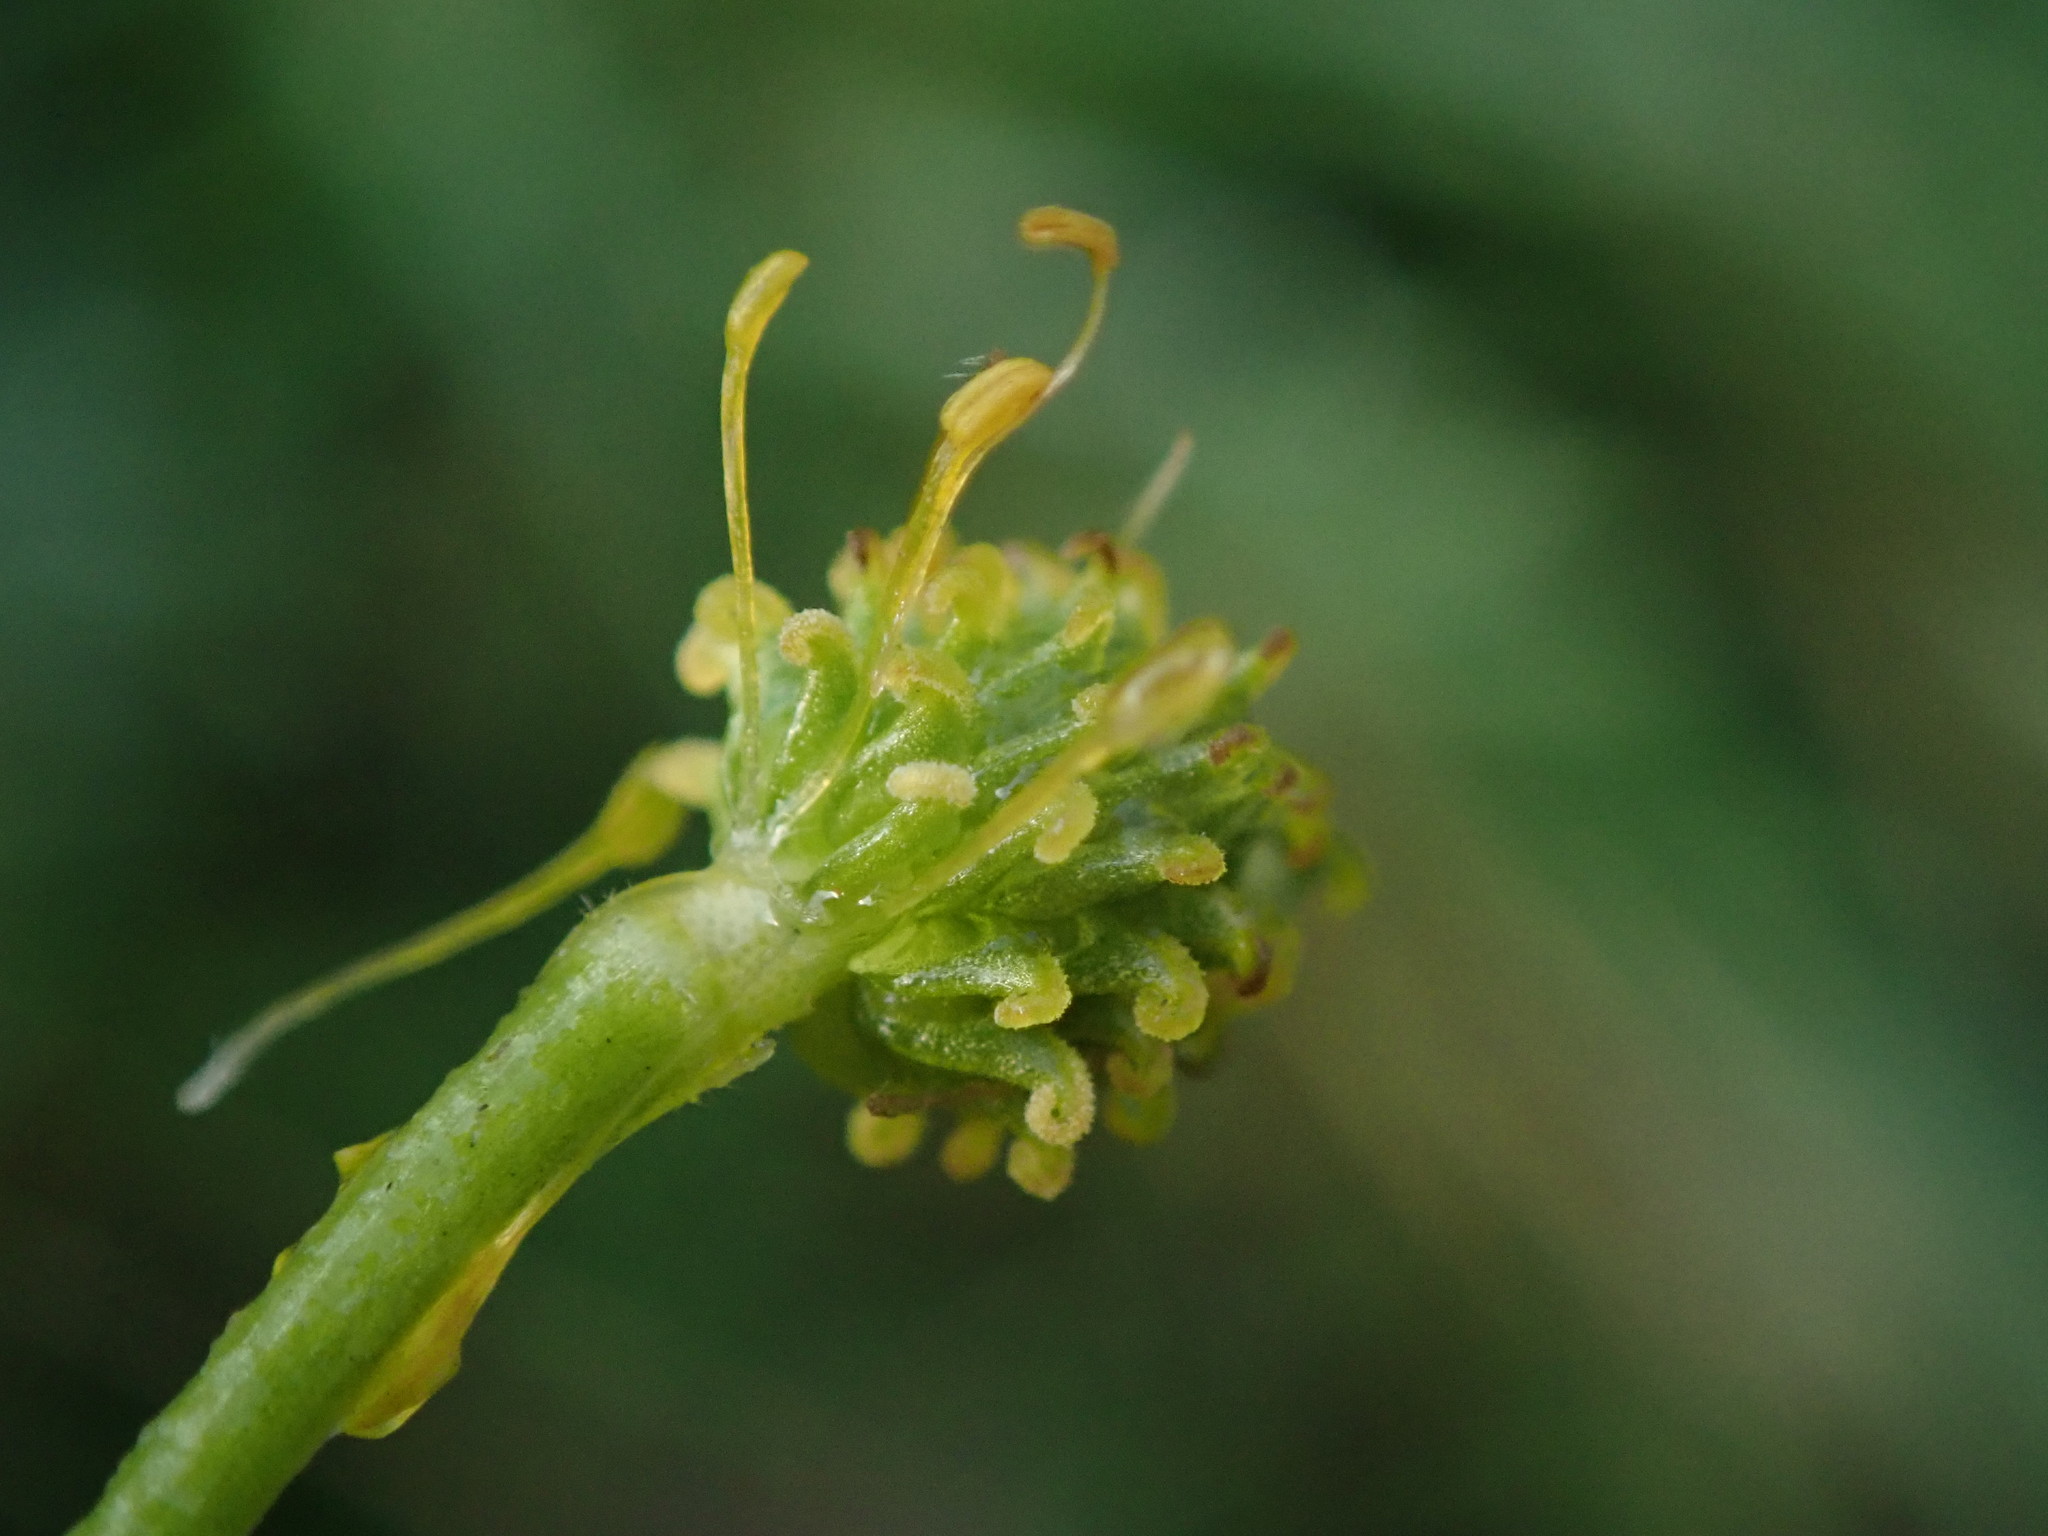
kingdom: Plantae
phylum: Tracheophyta
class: Magnoliopsida
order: Ranunculales
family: Ranunculaceae
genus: Ranunculus
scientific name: Ranunculus acris
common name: Meadow buttercup
